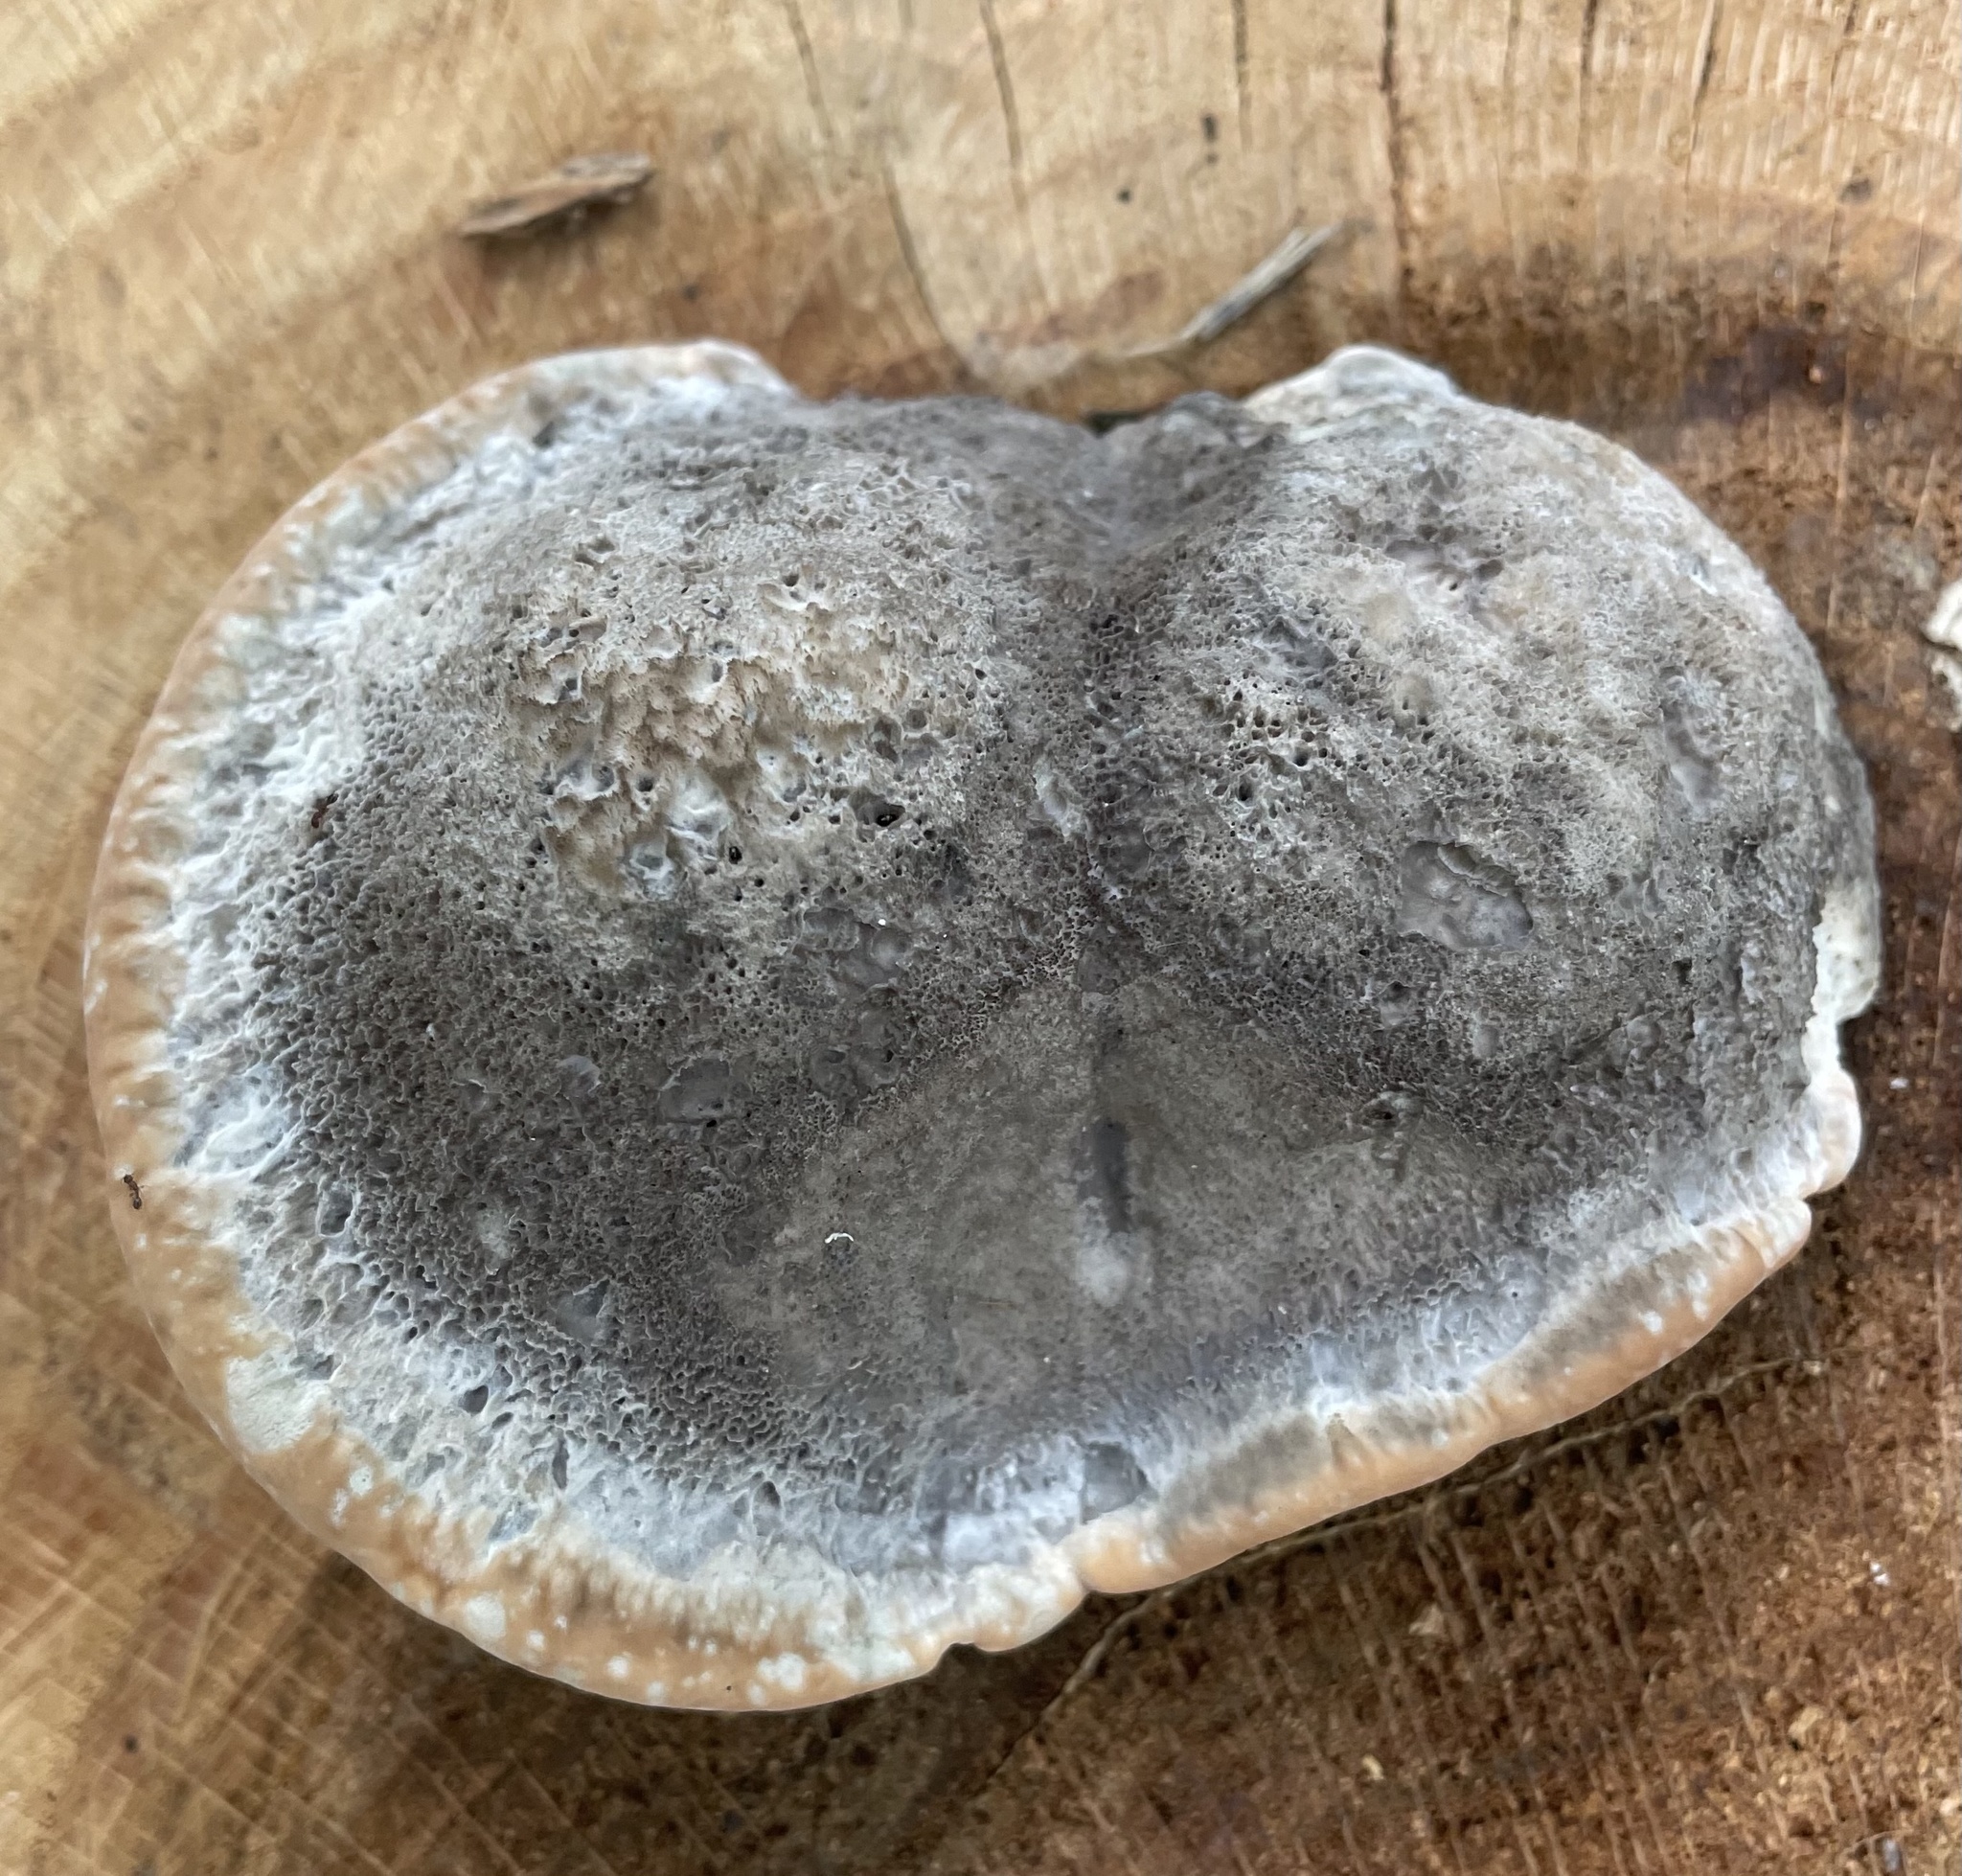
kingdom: Fungi
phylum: Basidiomycota
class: Agaricomycetes
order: Polyporales
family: Fomitopsidaceae
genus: Niveoporofomes
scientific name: Niveoporofomes spraguei
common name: Green cheese polypore
